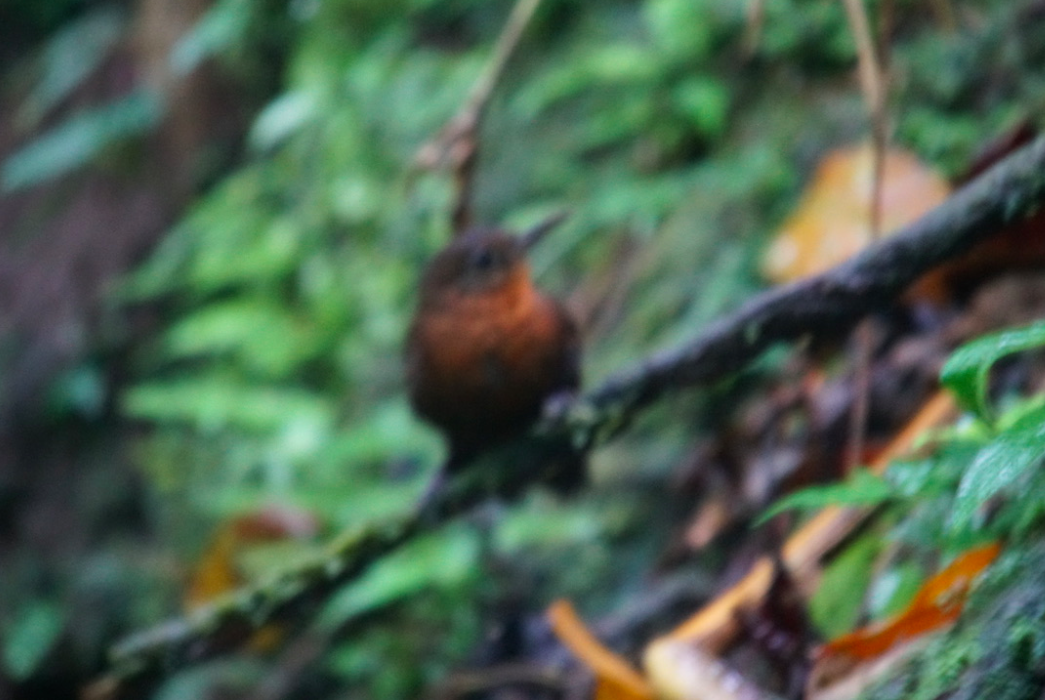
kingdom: Animalia
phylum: Chordata
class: Aves
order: Passeriformes
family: Furnariidae
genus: Sclerurus
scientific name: Sclerurus mexicanus
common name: Tawny-throated leaftosser
